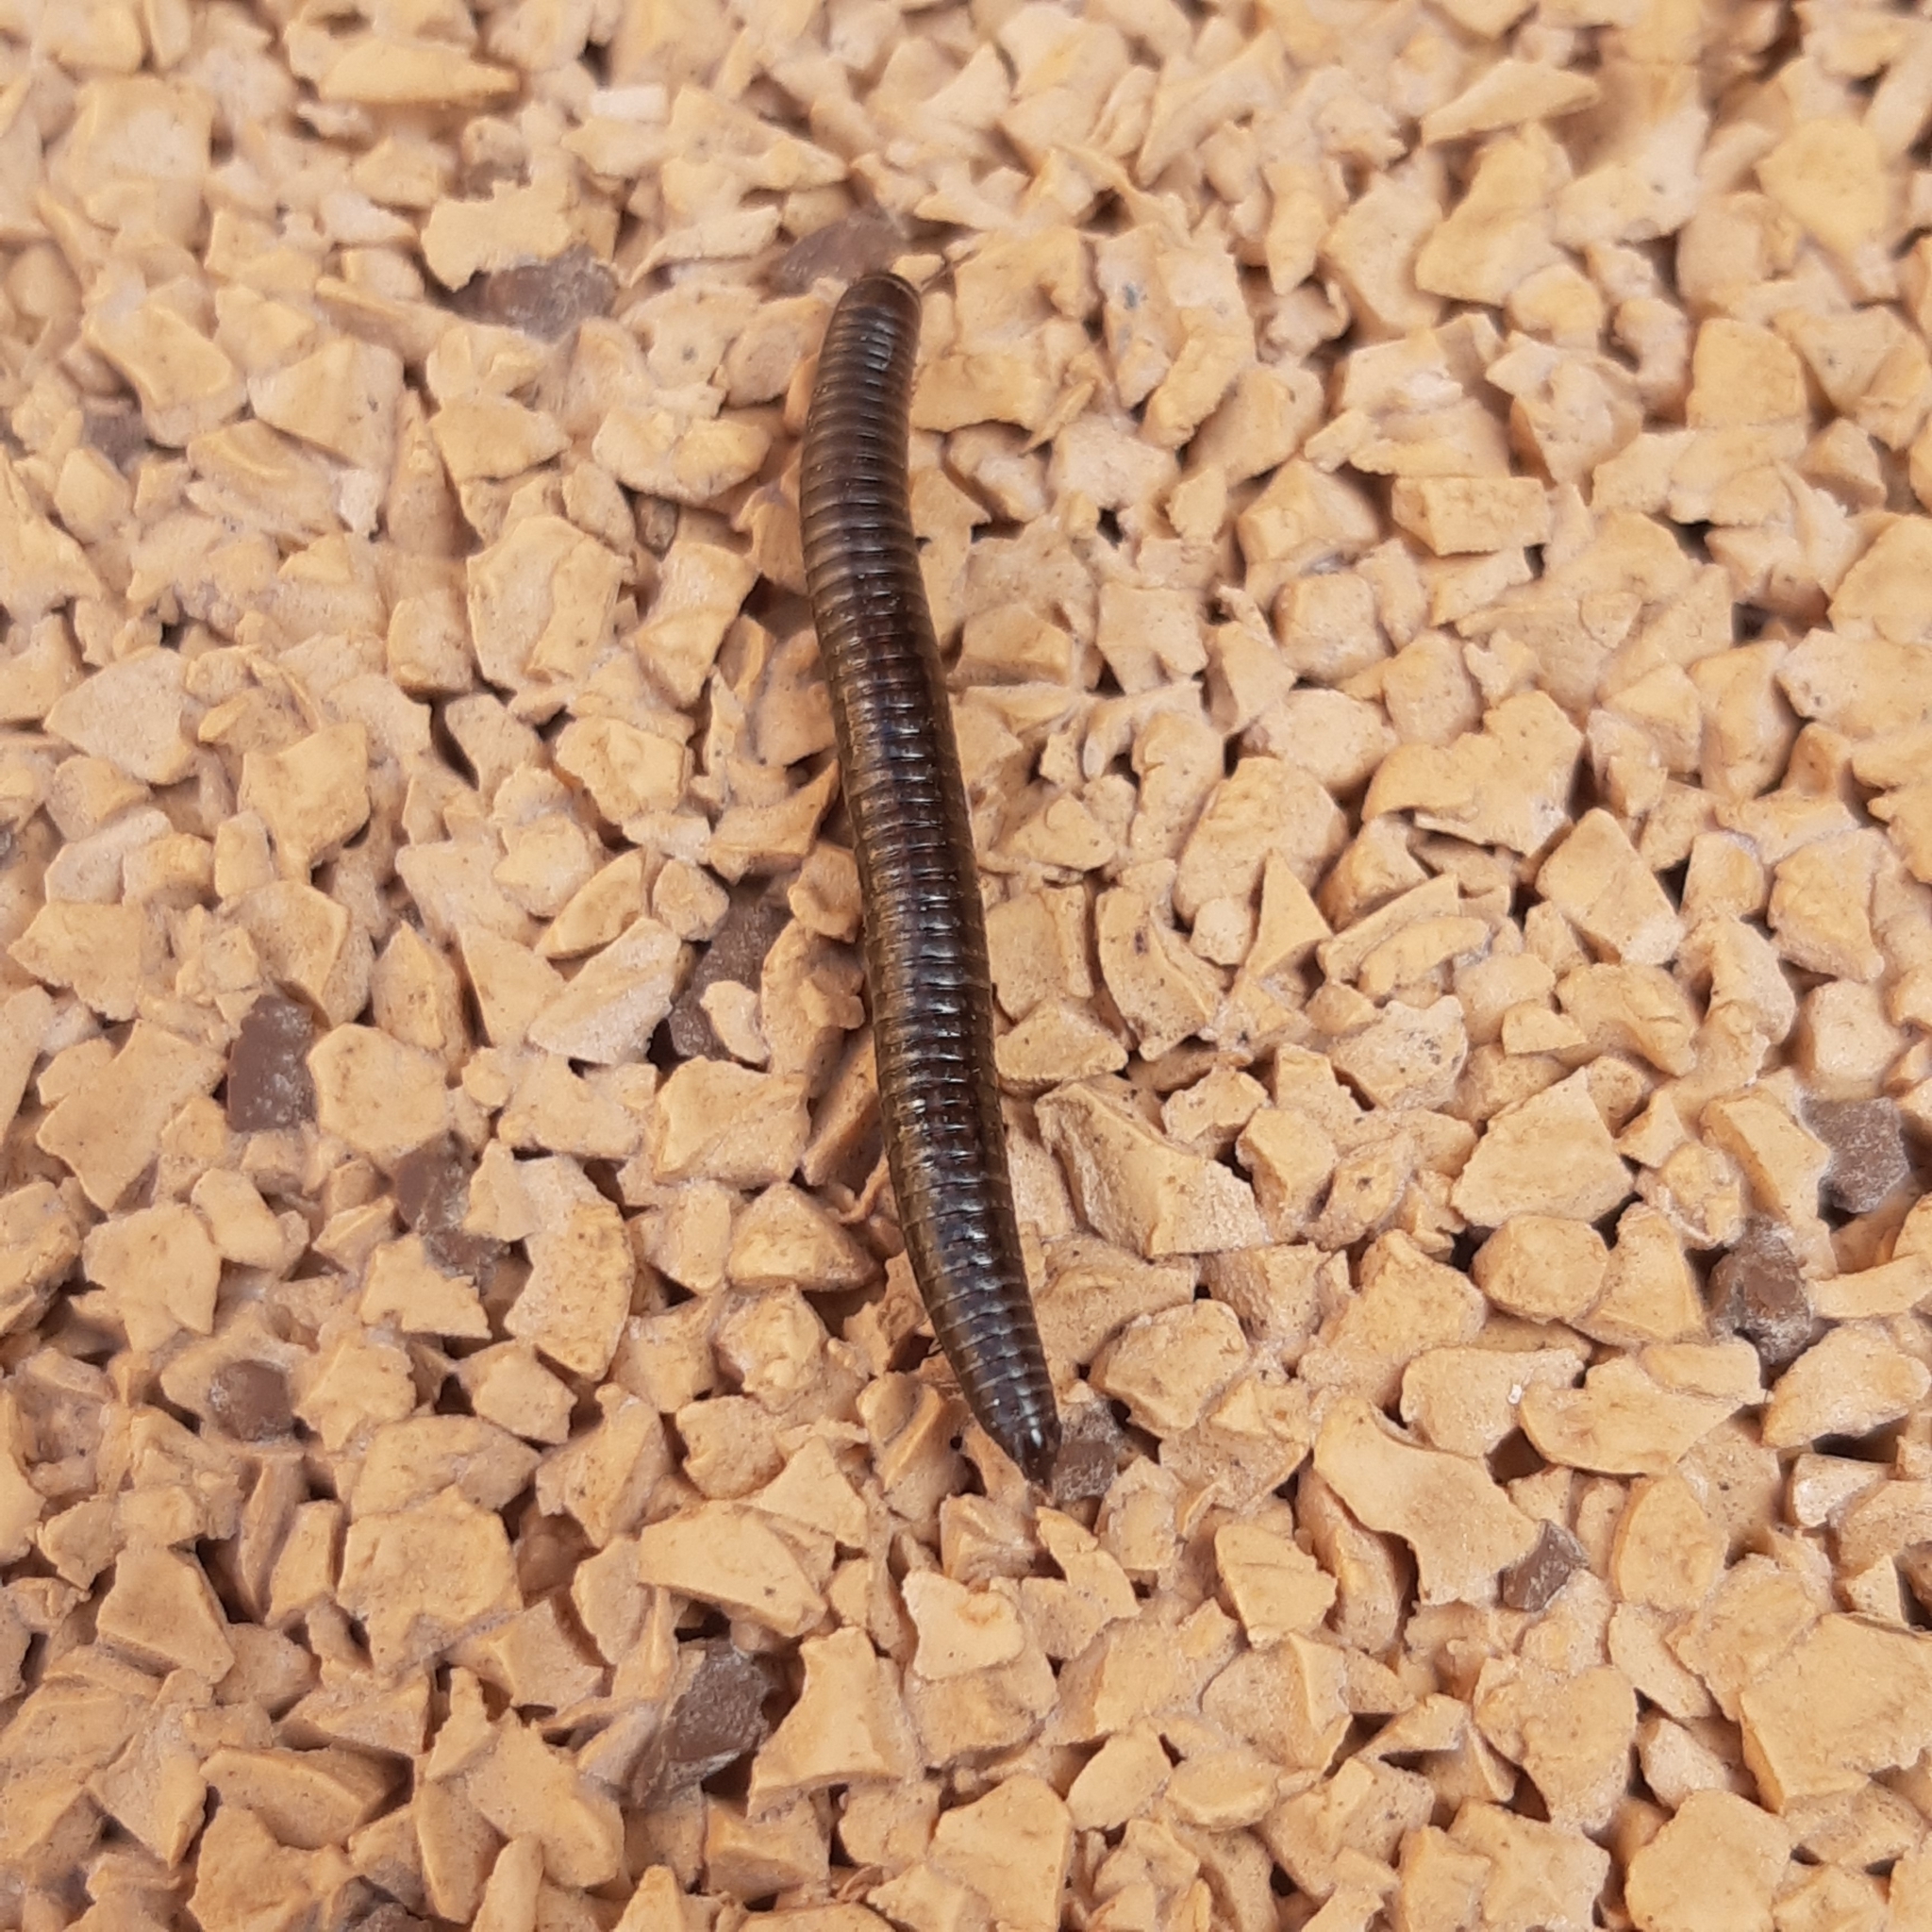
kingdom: Animalia
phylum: Arthropoda
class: Diplopoda
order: Julida
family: Julidae
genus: Ommatoiulus
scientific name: Ommatoiulus sabulosus
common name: Striped millipede
